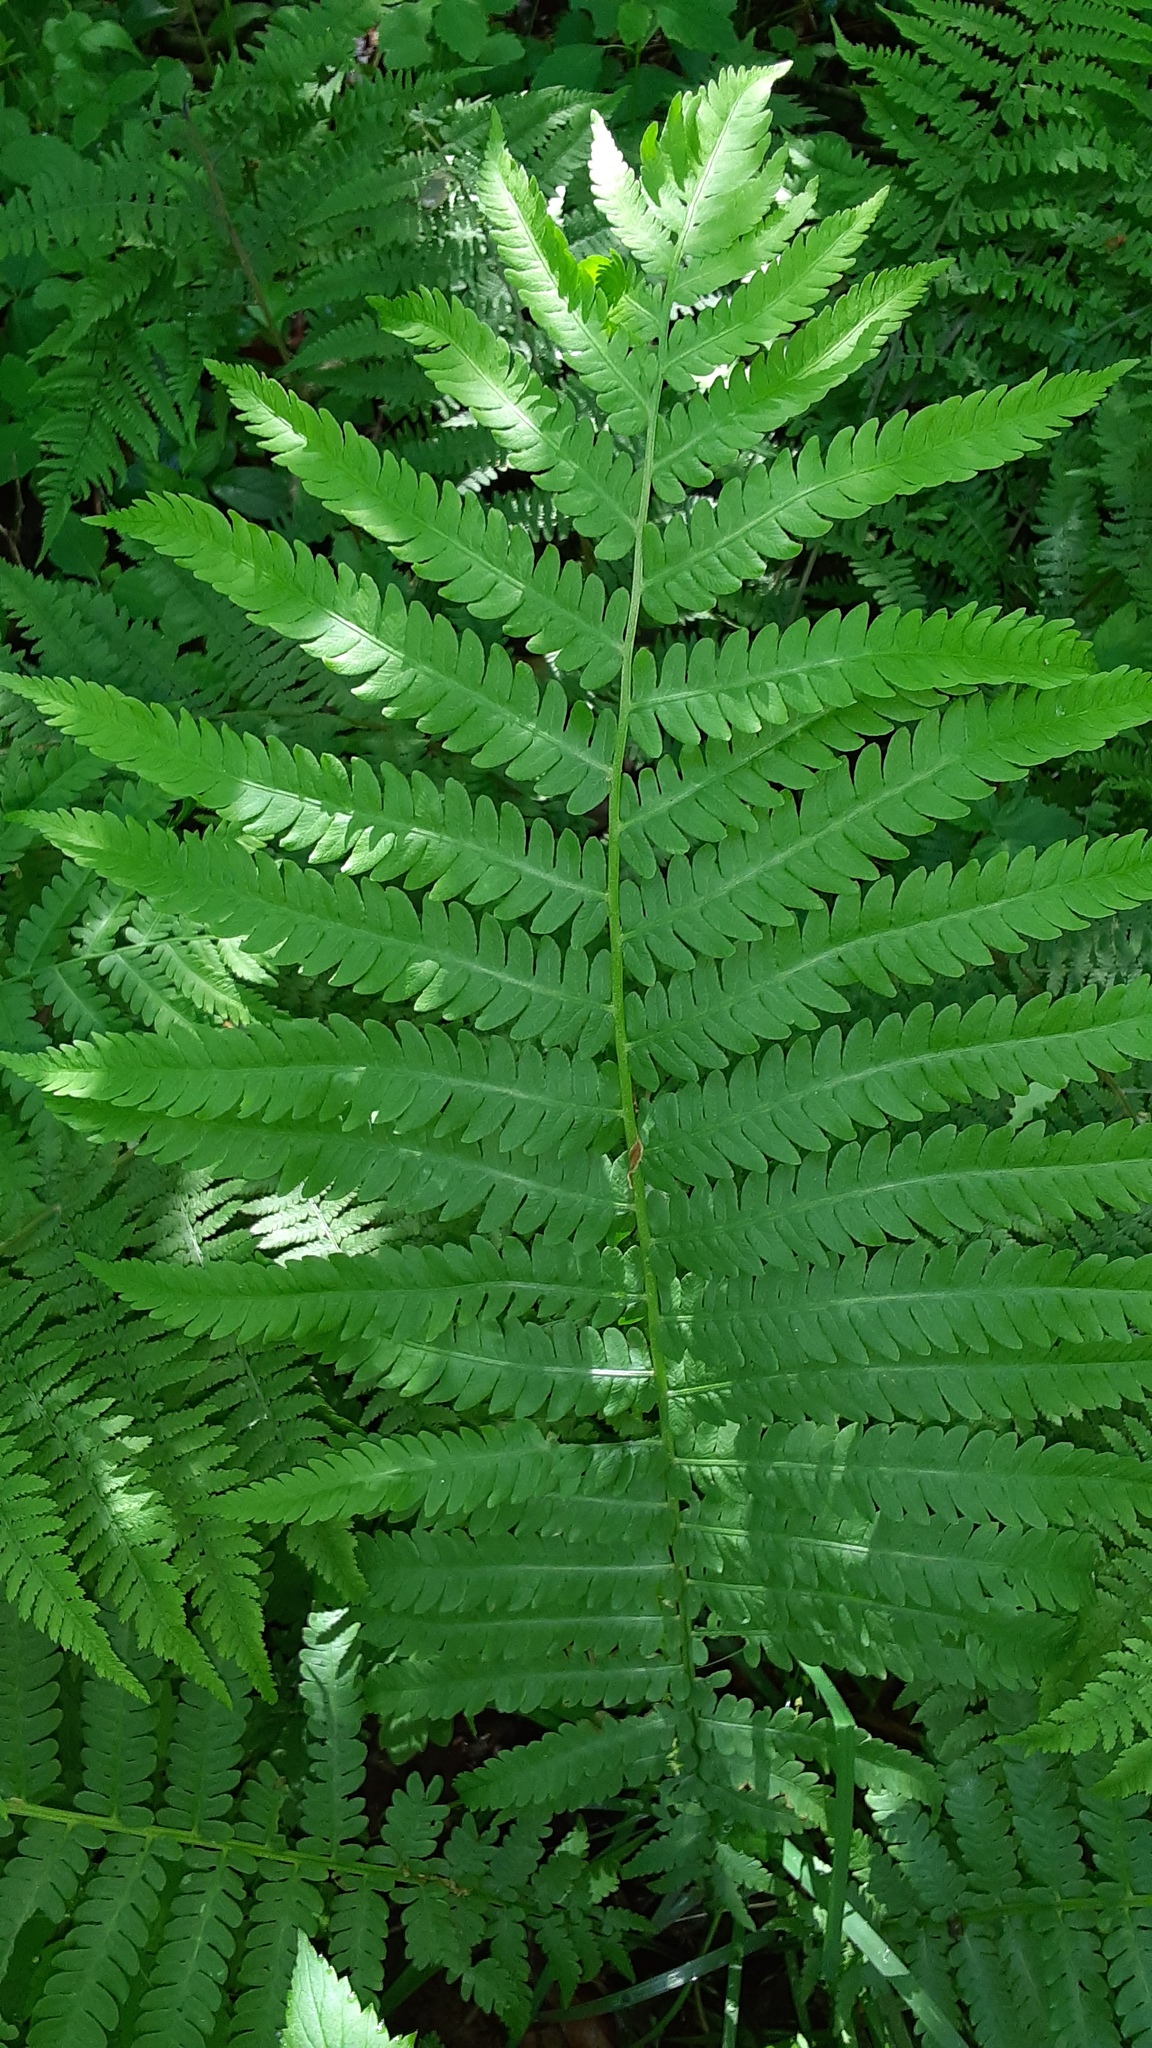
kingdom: Plantae
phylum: Tracheophyta
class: Polypodiopsida
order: Polypodiales
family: Onocleaceae
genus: Matteuccia
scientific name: Matteuccia struthiopteris
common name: Ostrich fern
